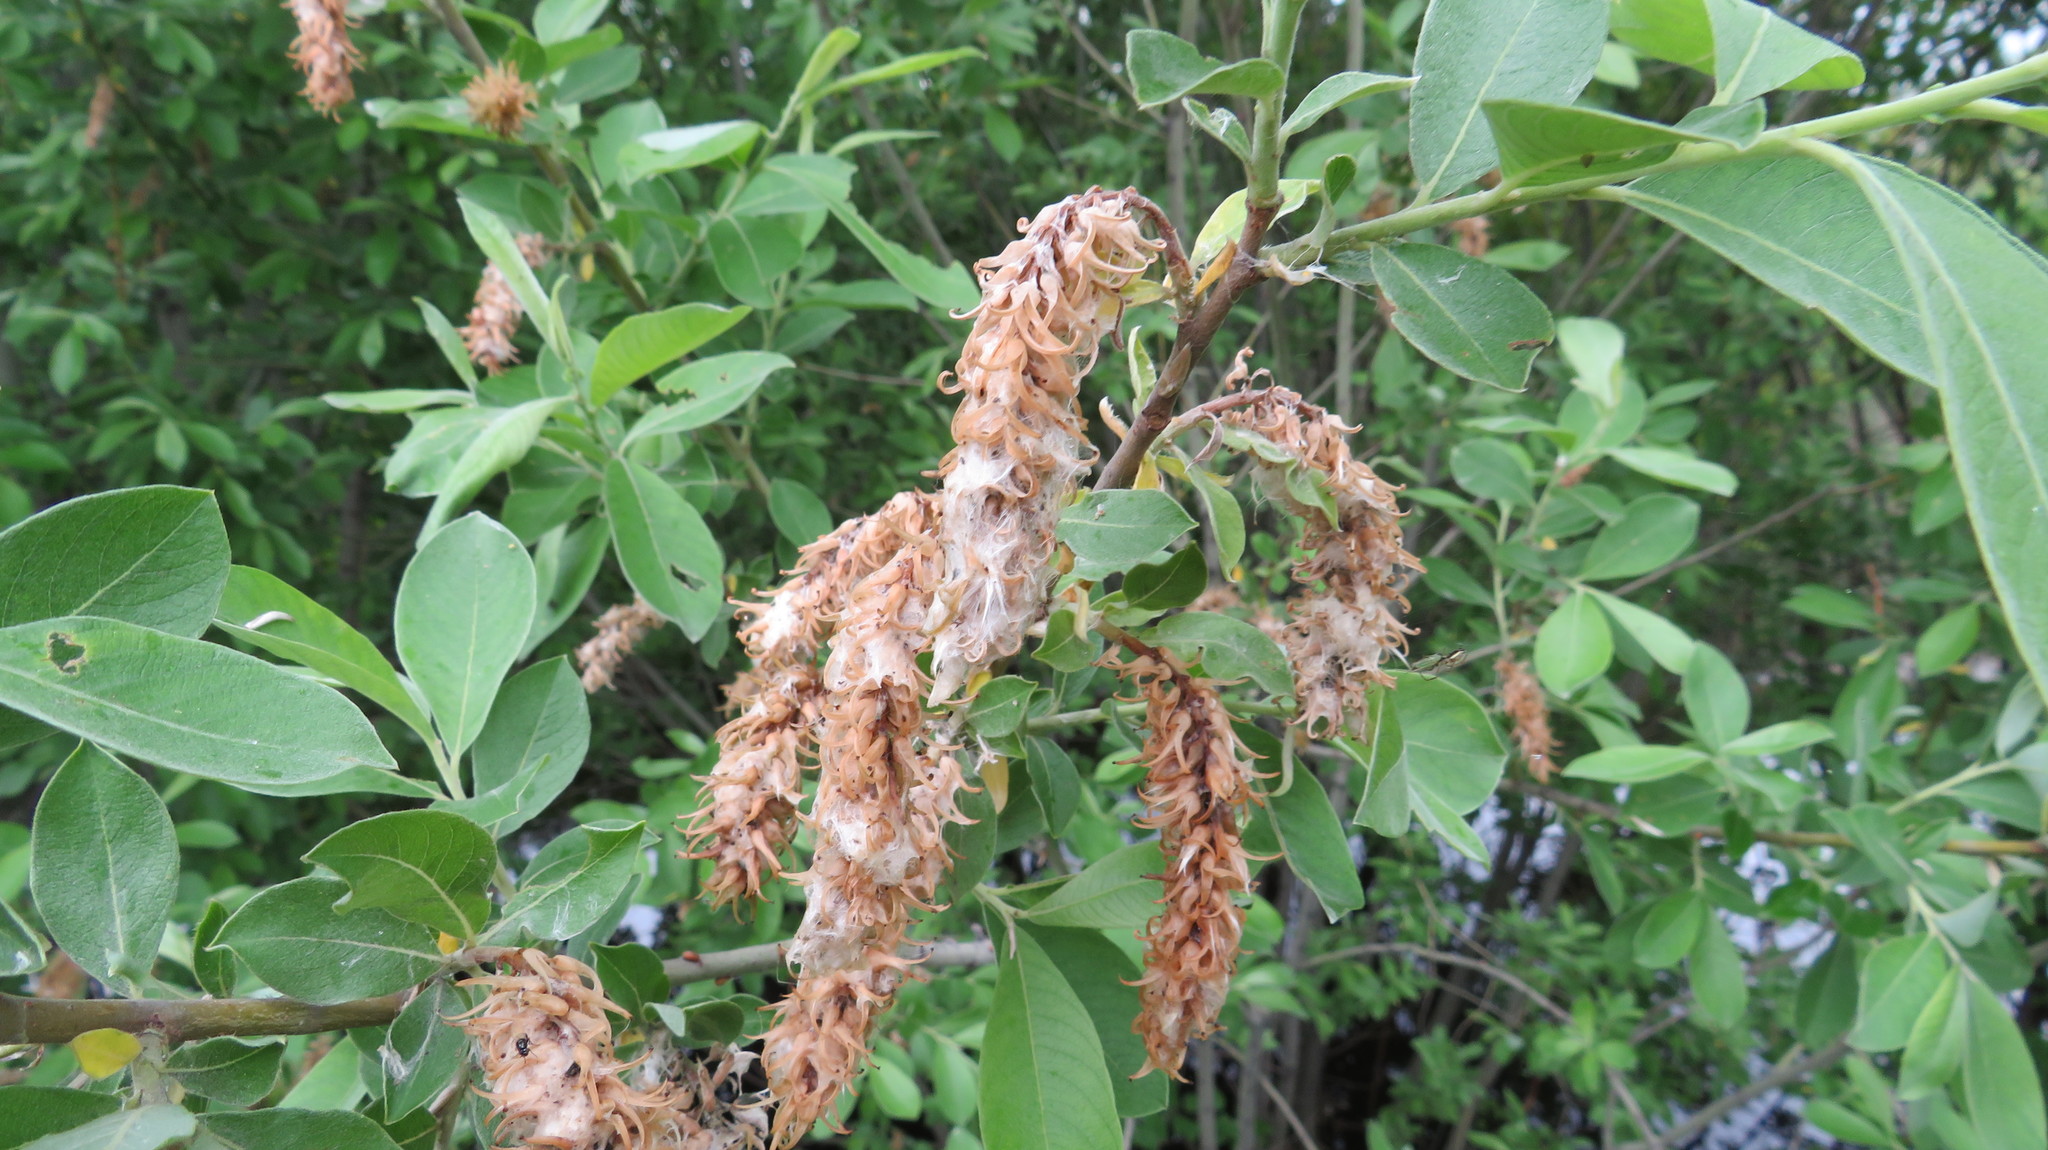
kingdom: Plantae
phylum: Tracheophyta
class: Magnoliopsida
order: Malpighiales
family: Salicaceae
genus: Salix
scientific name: Salix cinerea
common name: Common sallow
